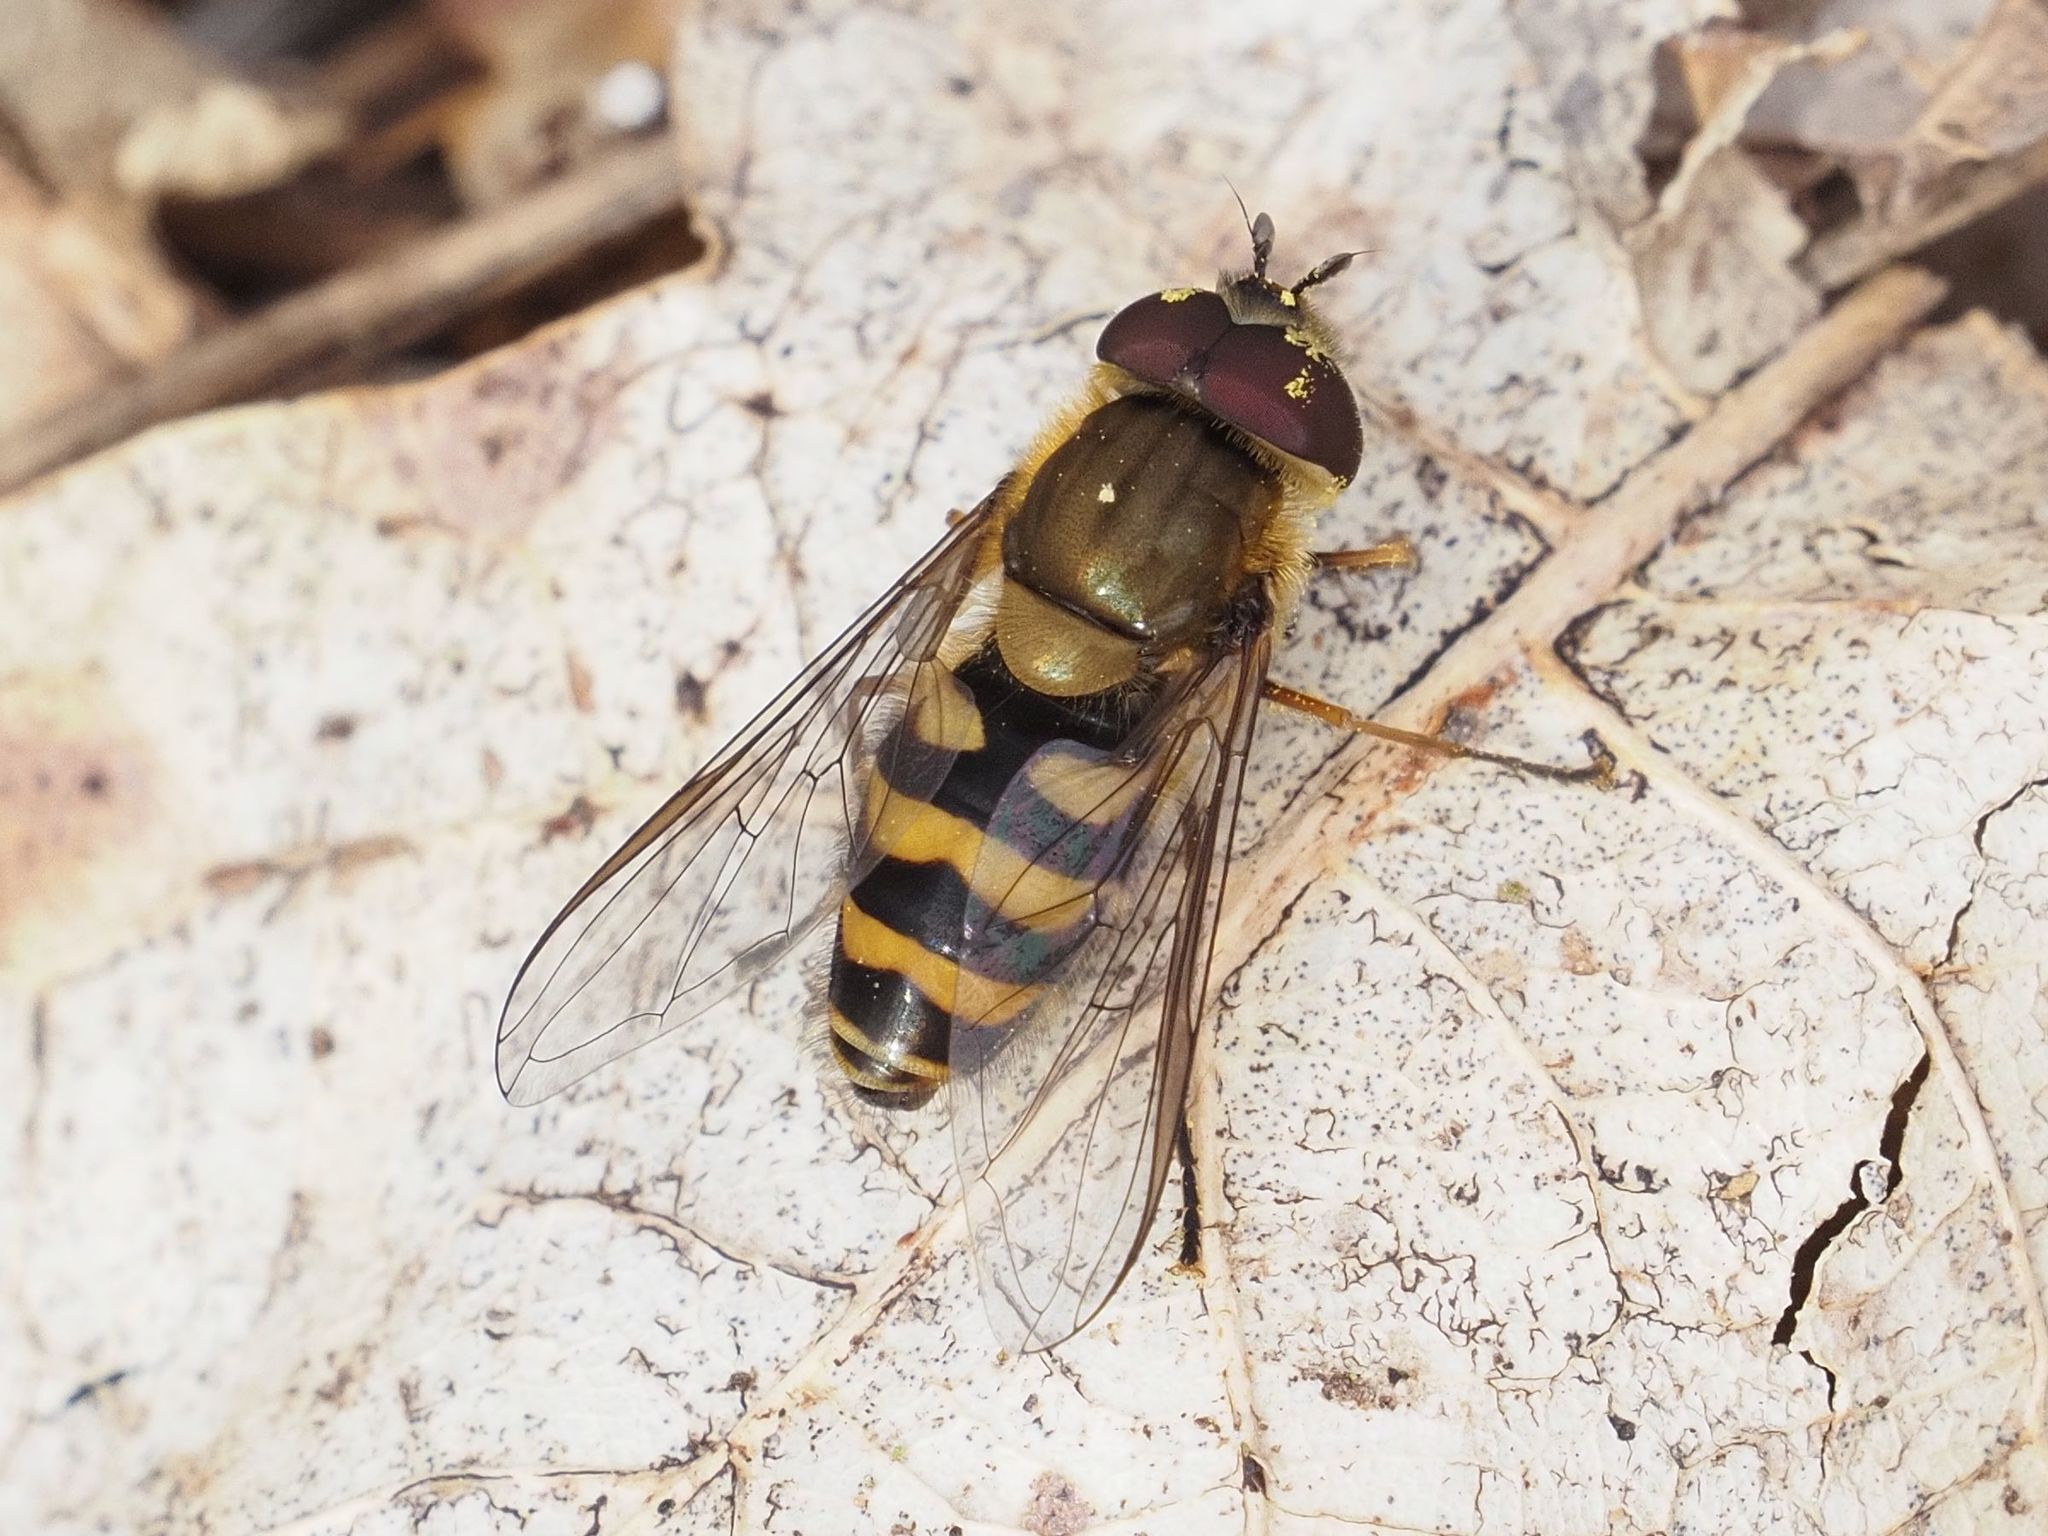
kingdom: Animalia
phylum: Arthropoda
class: Insecta
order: Diptera
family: Syrphidae
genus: Syrphus
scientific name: Syrphus torvus
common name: Hairy-eyed flower fly
